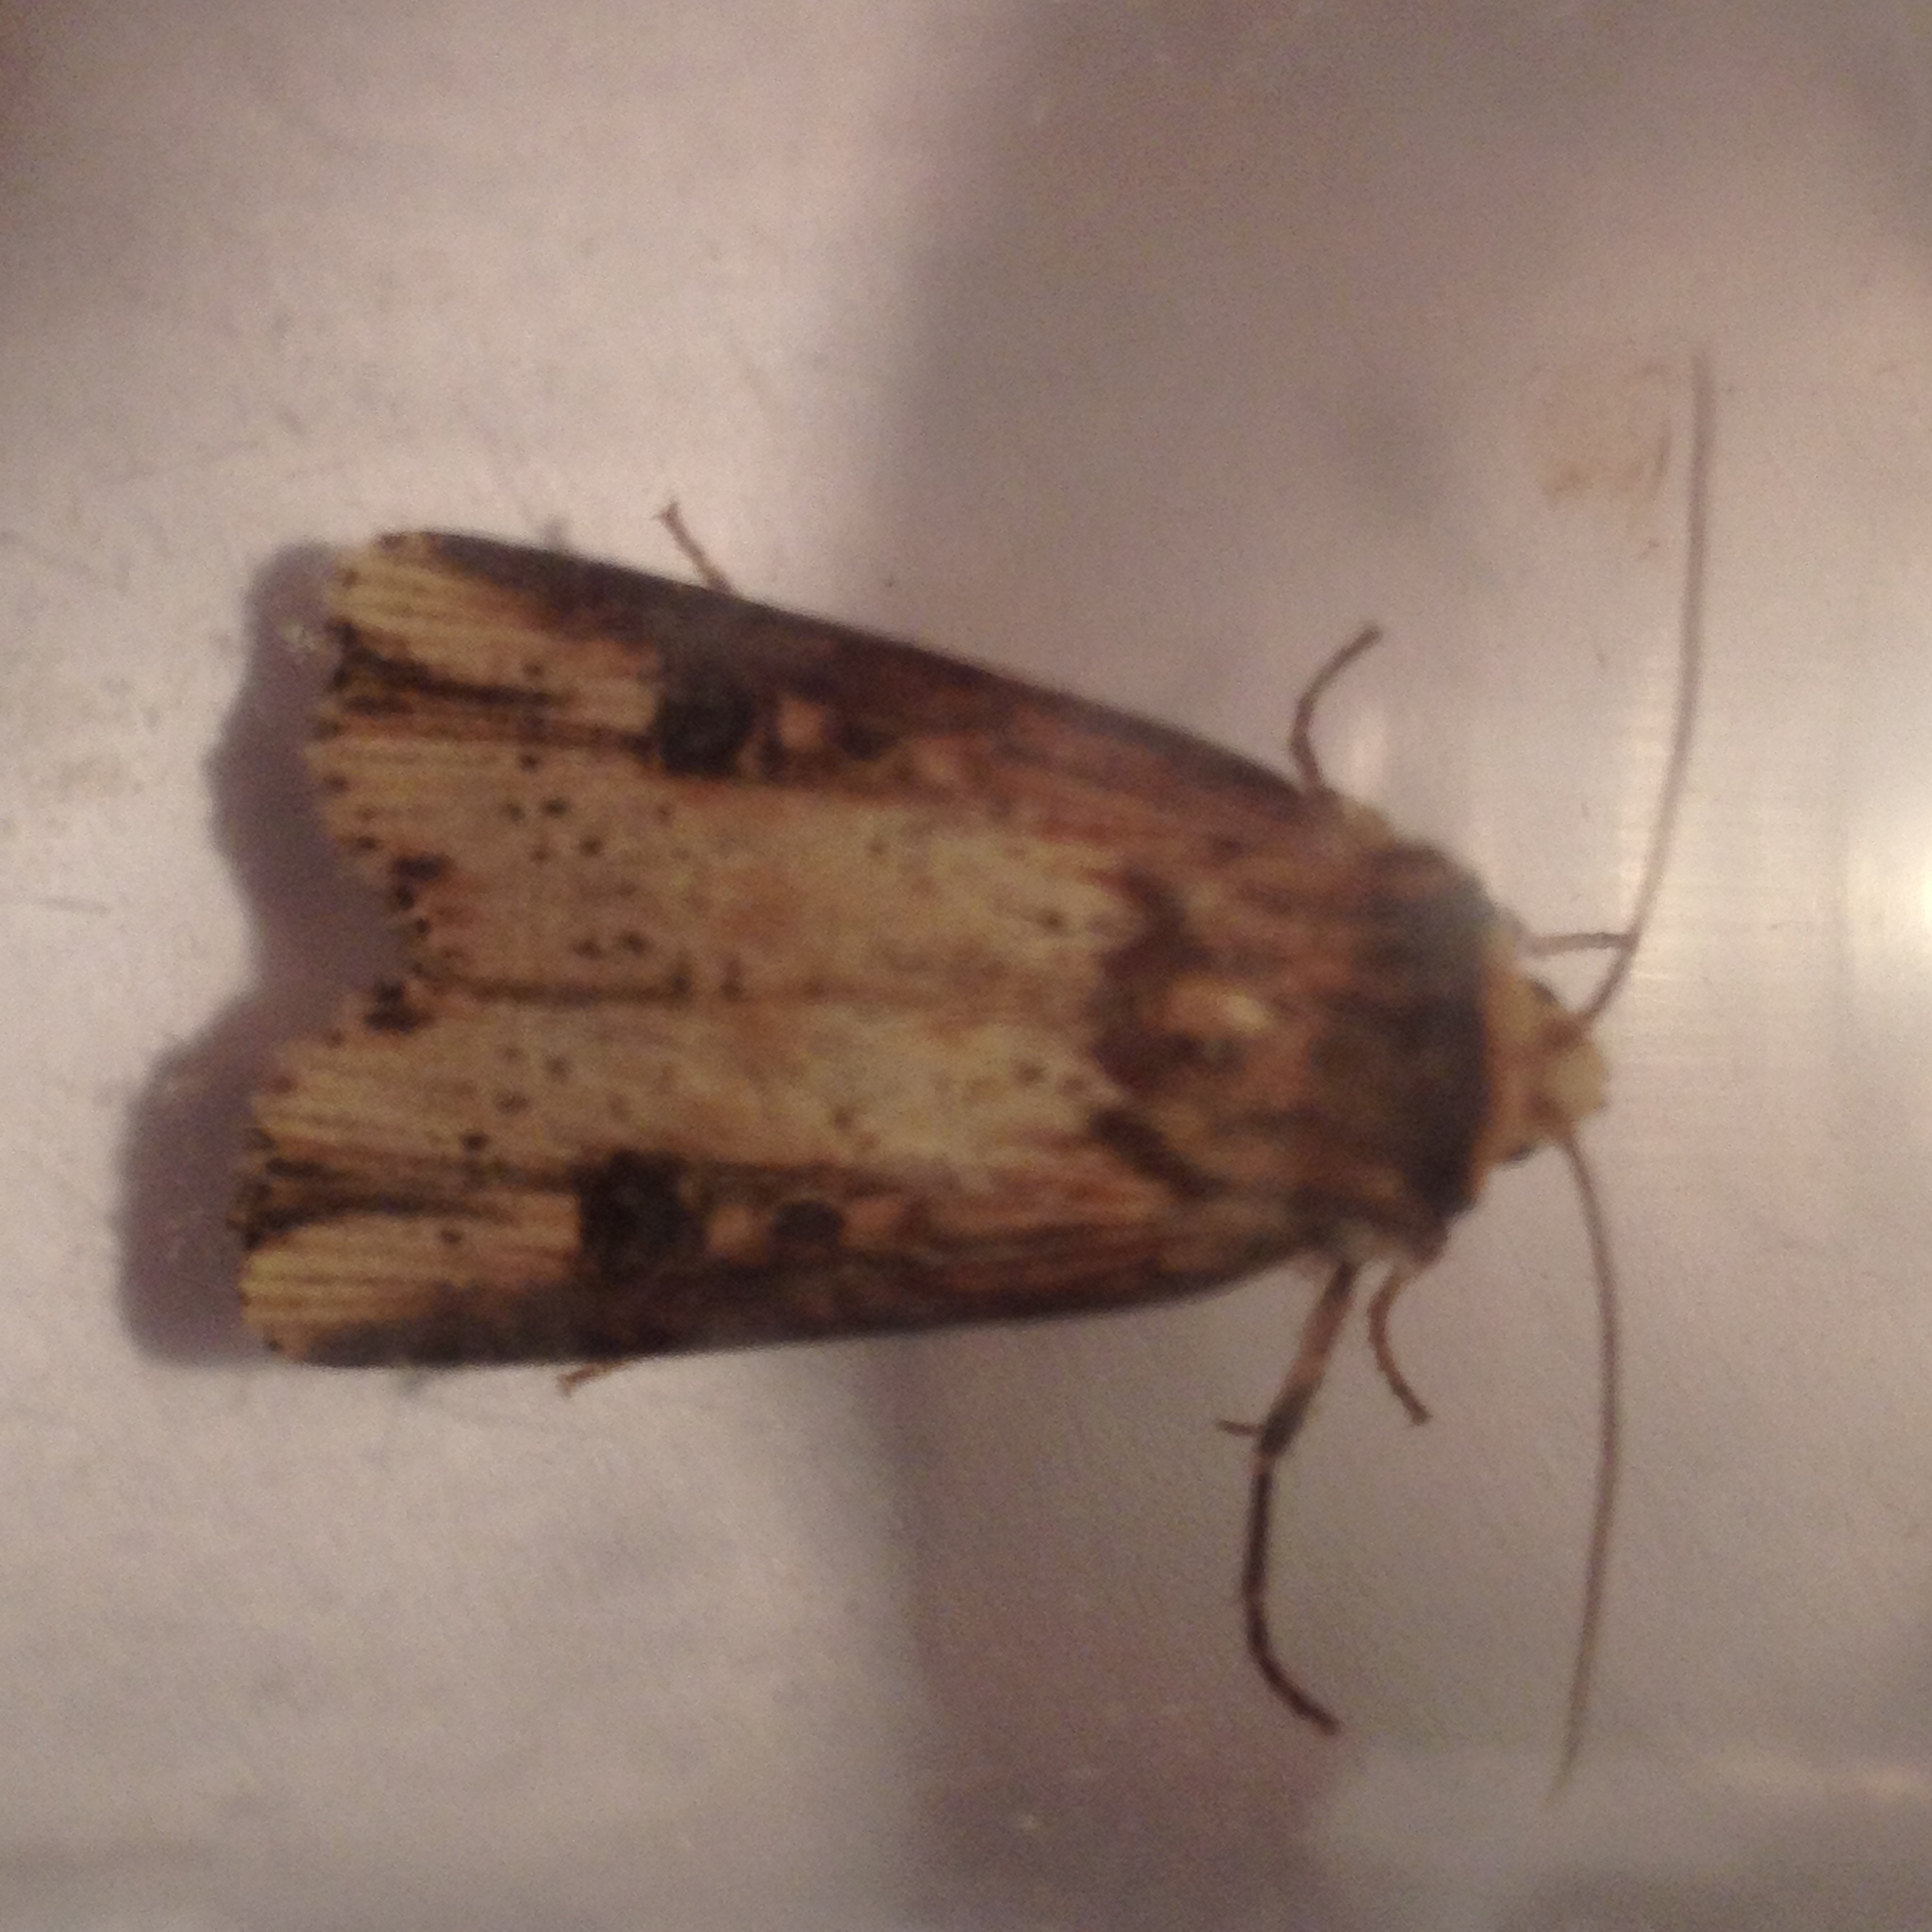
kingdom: Animalia
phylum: Arthropoda
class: Insecta
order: Lepidoptera
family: Noctuidae
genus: Axylia
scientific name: Axylia putris
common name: Flame
